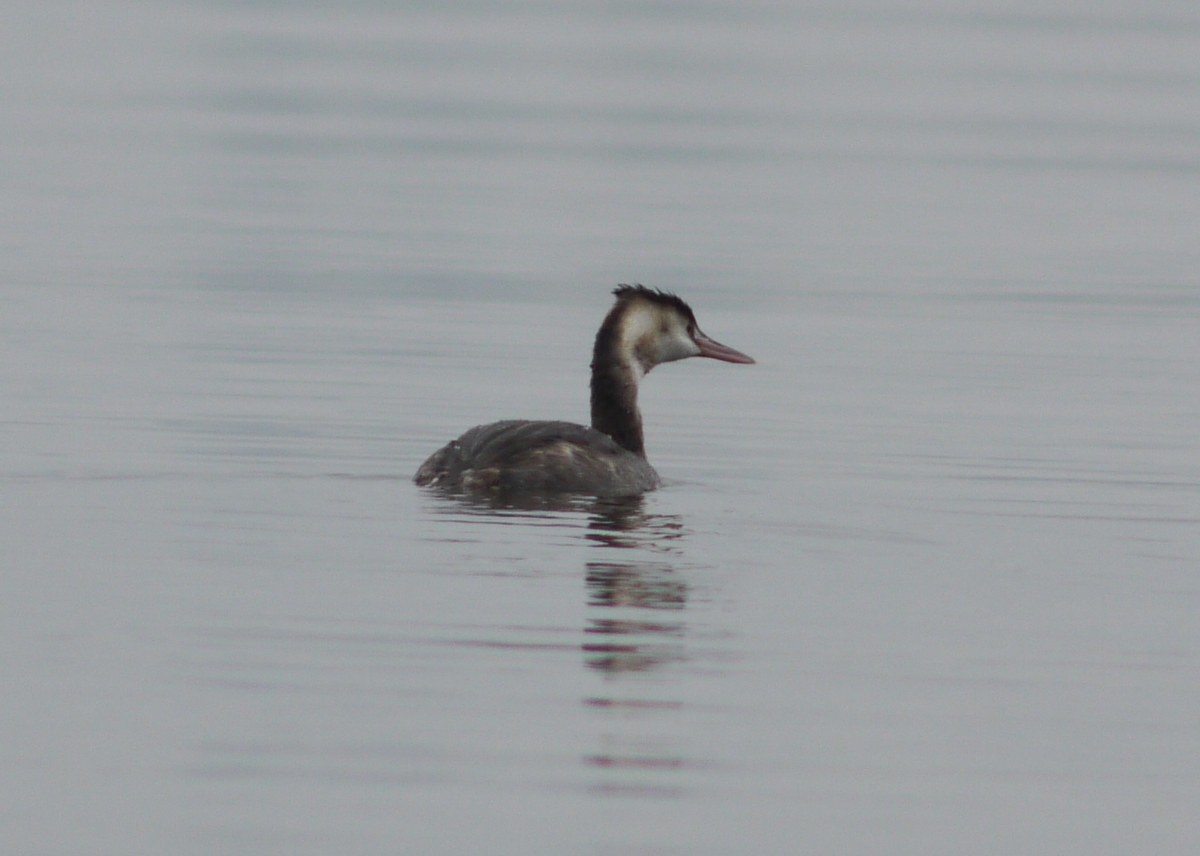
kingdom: Animalia
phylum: Chordata
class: Aves
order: Podicipediformes
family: Podicipedidae
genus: Podiceps
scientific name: Podiceps cristatus
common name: Great crested grebe
